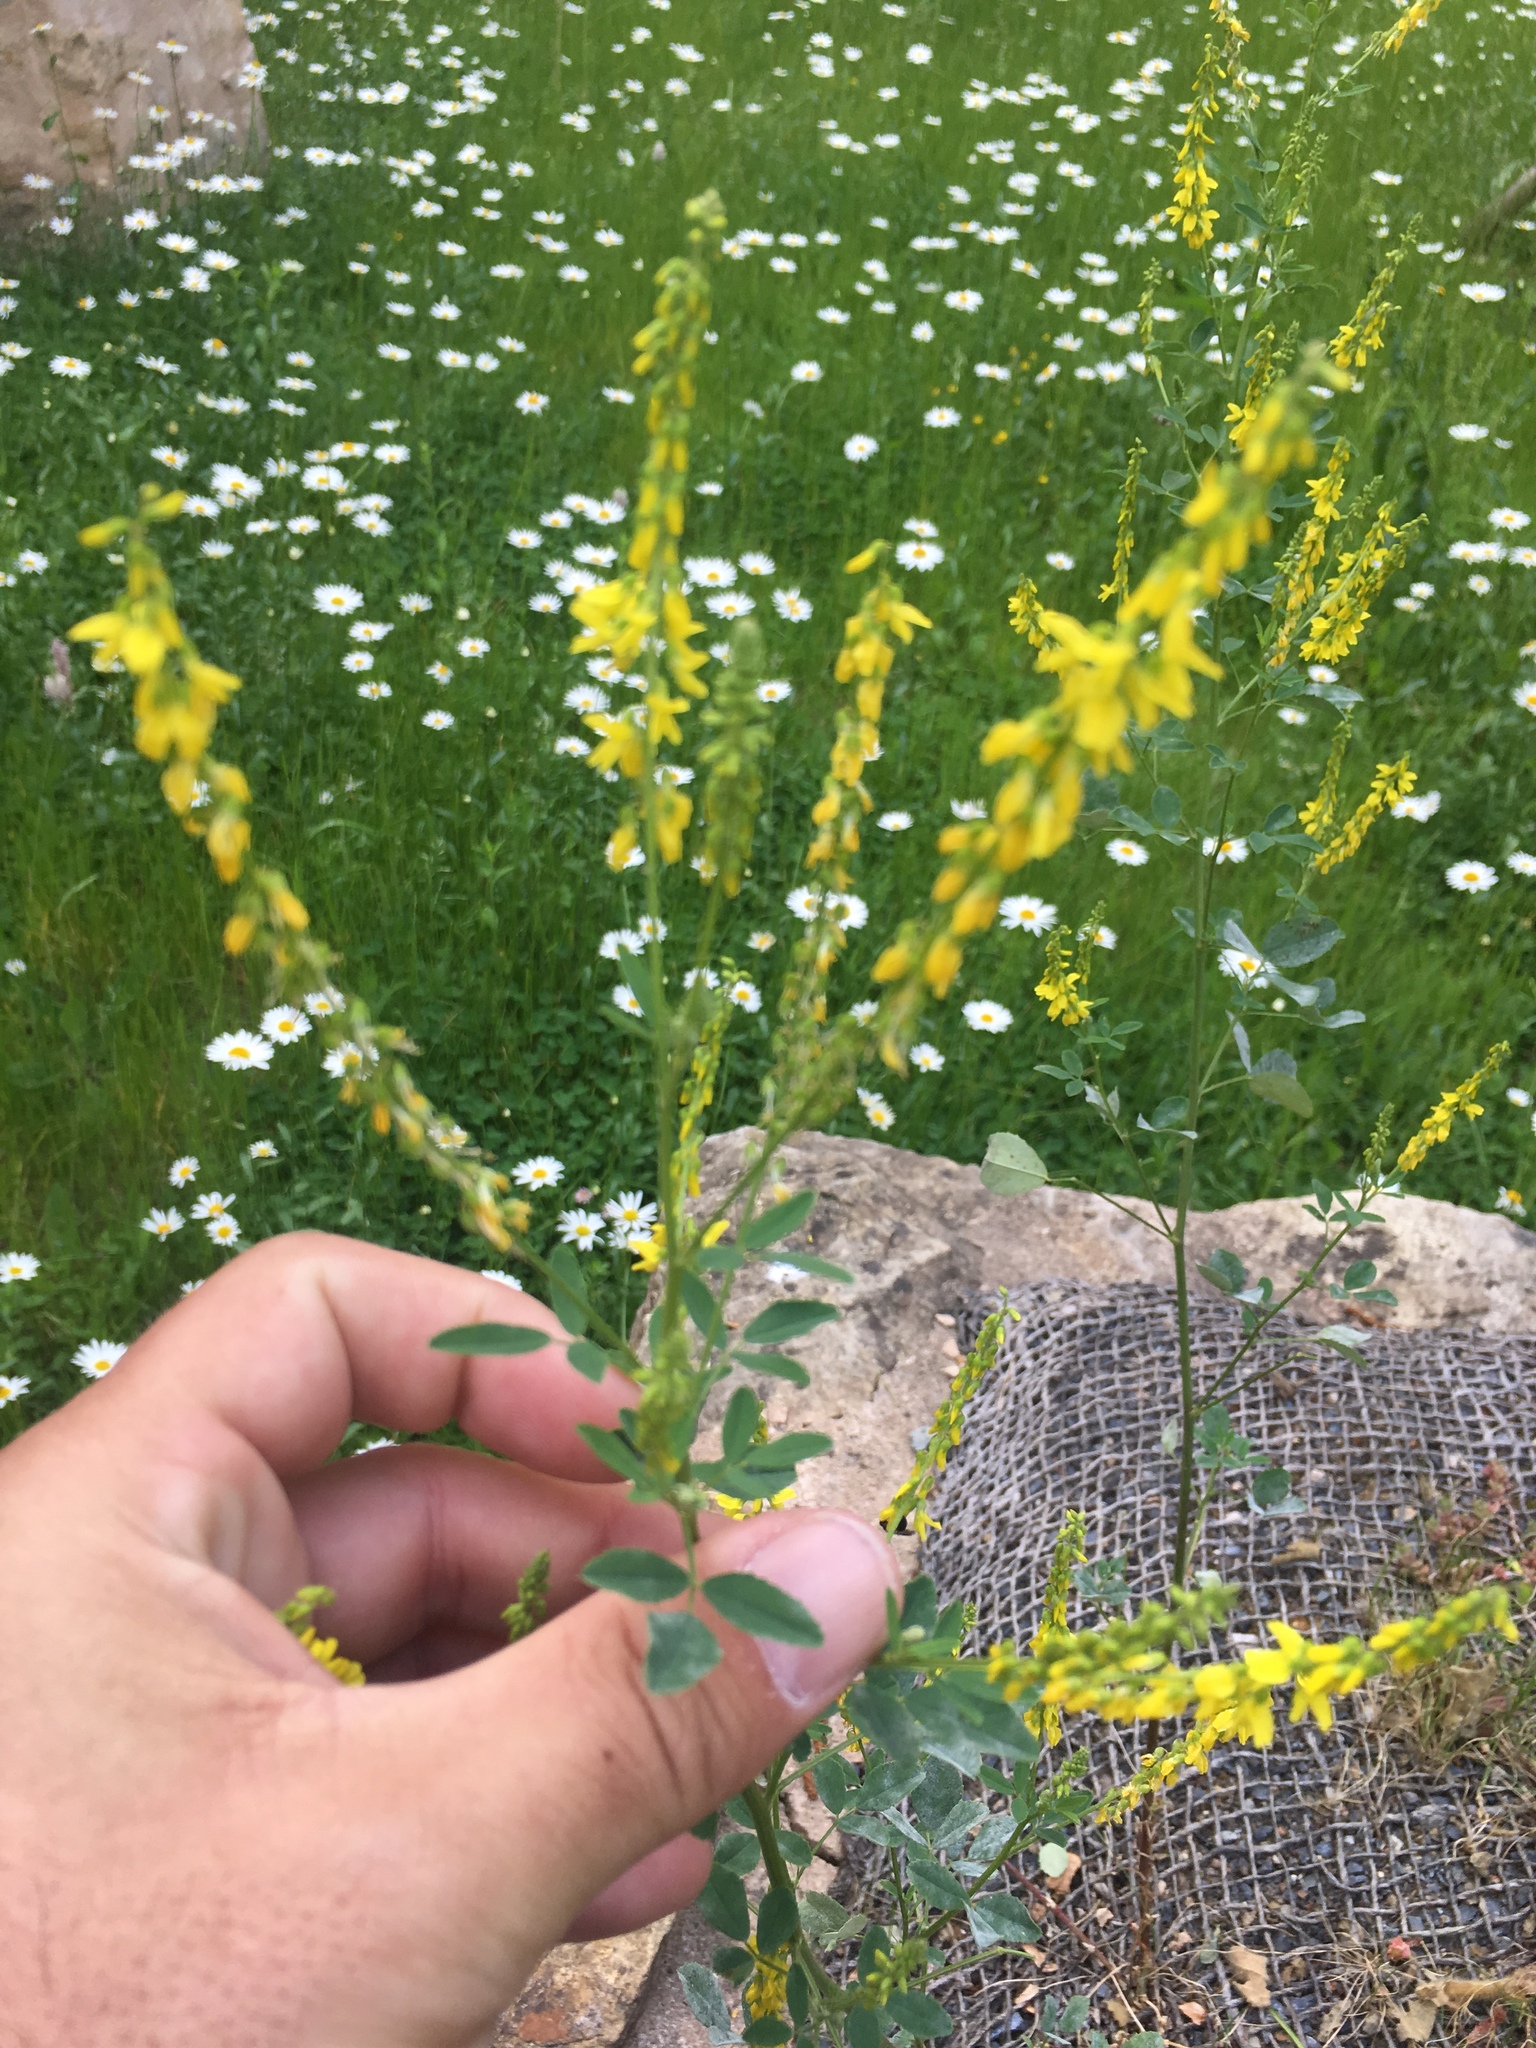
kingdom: Plantae
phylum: Tracheophyta
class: Magnoliopsida
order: Fabales
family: Fabaceae
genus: Melilotus
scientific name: Melilotus officinalis
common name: Sweetclover
